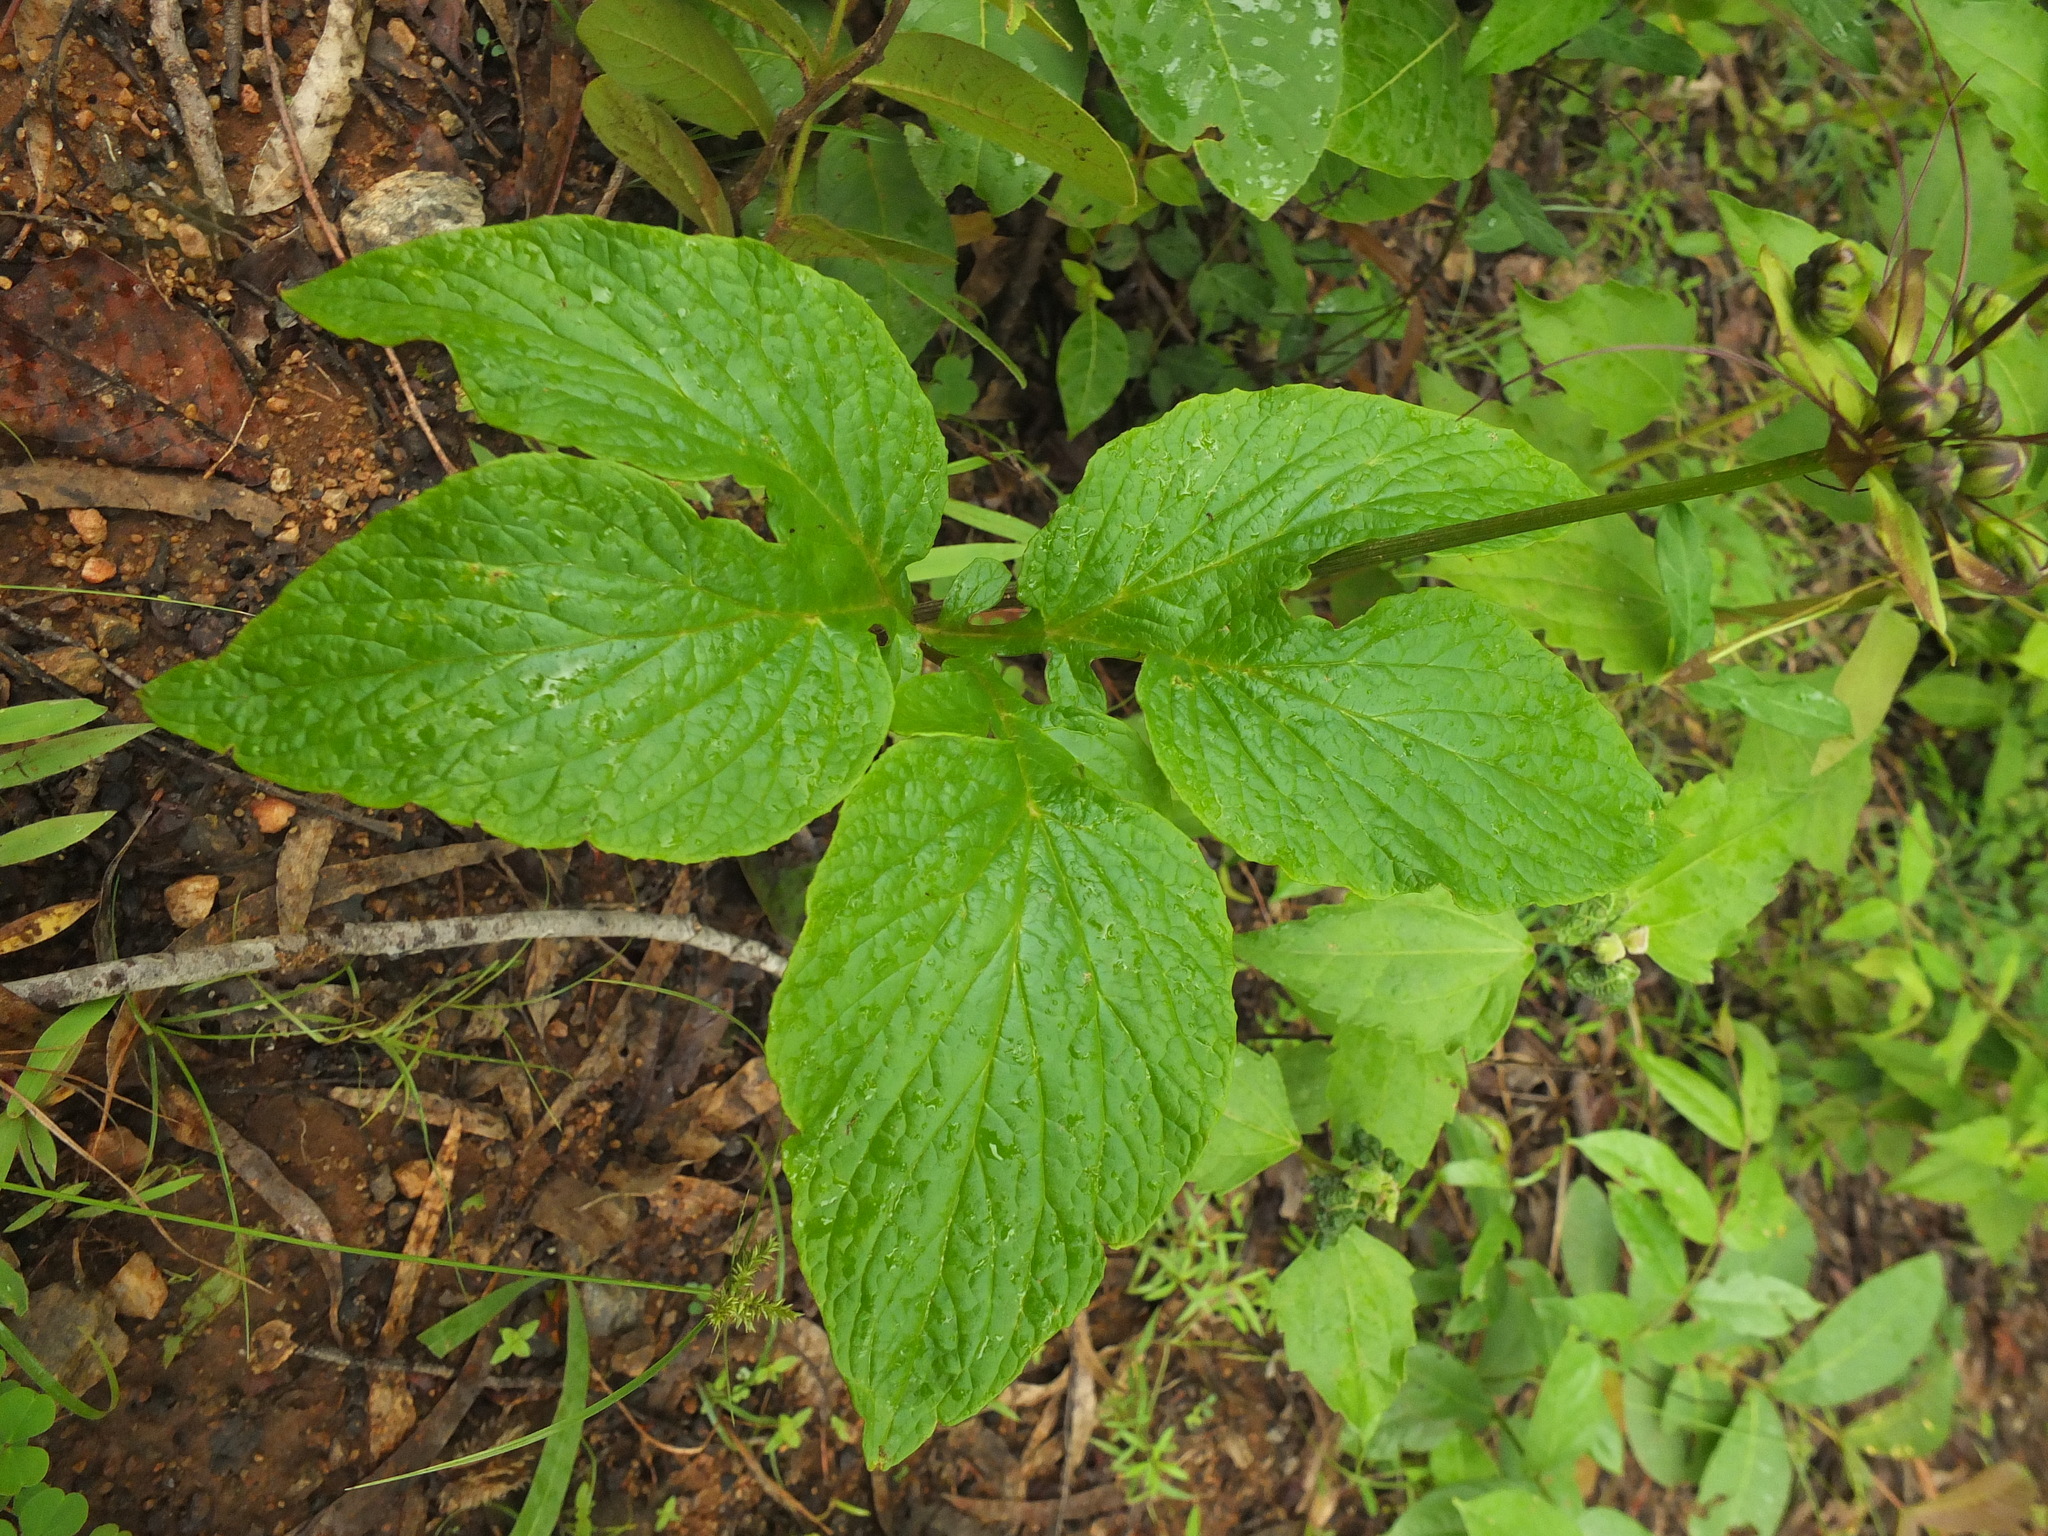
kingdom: Plantae
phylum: Tracheophyta
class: Liliopsida
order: Dioscoreales
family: Dioscoreaceae
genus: Tacca
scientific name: Tacca leontopetaloides
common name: Arrowroot
